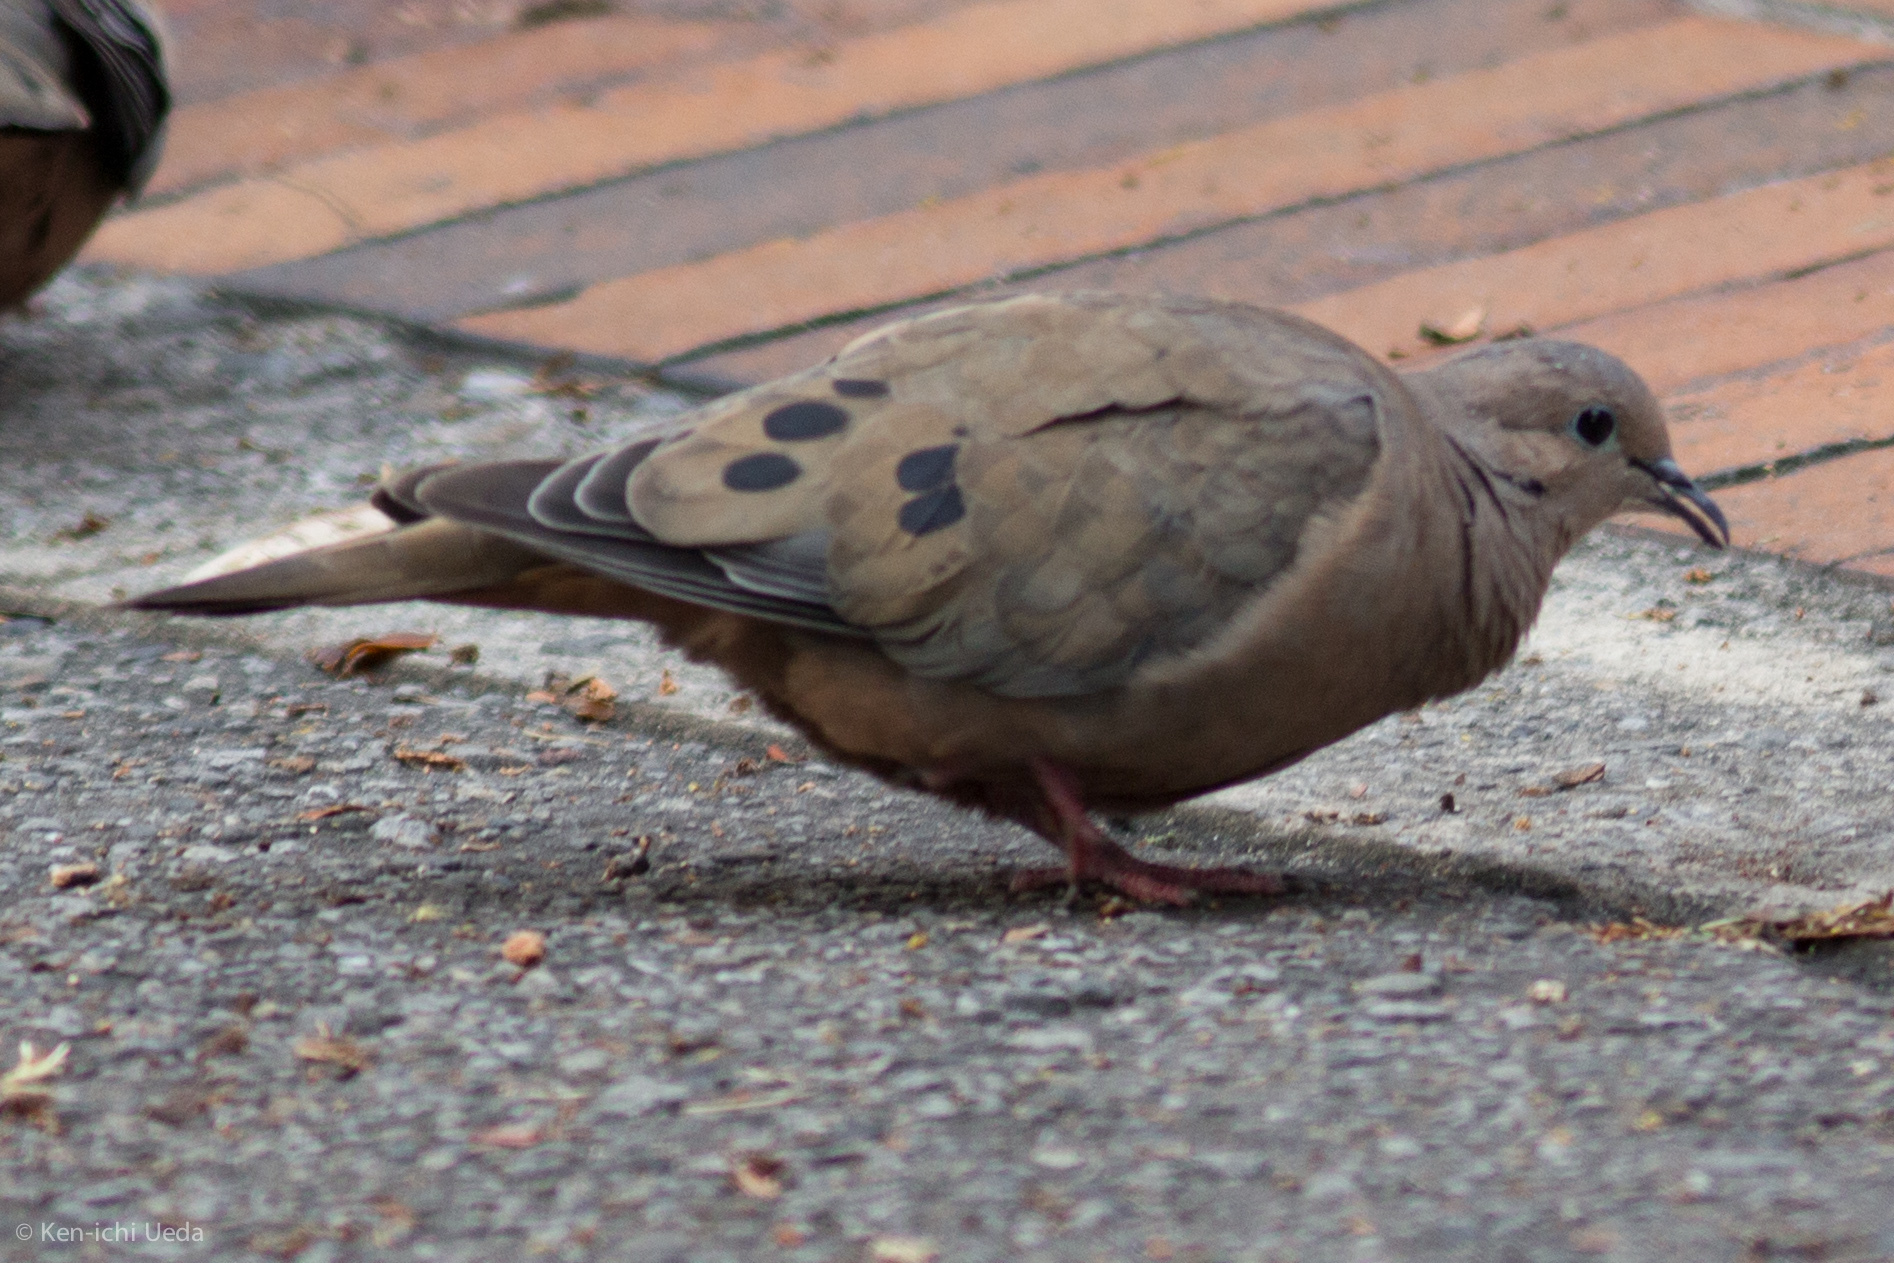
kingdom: Animalia
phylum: Chordata
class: Aves
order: Columbiformes
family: Columbidae
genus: Zenaida
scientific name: Zenaida auriculata
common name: Eared dove
